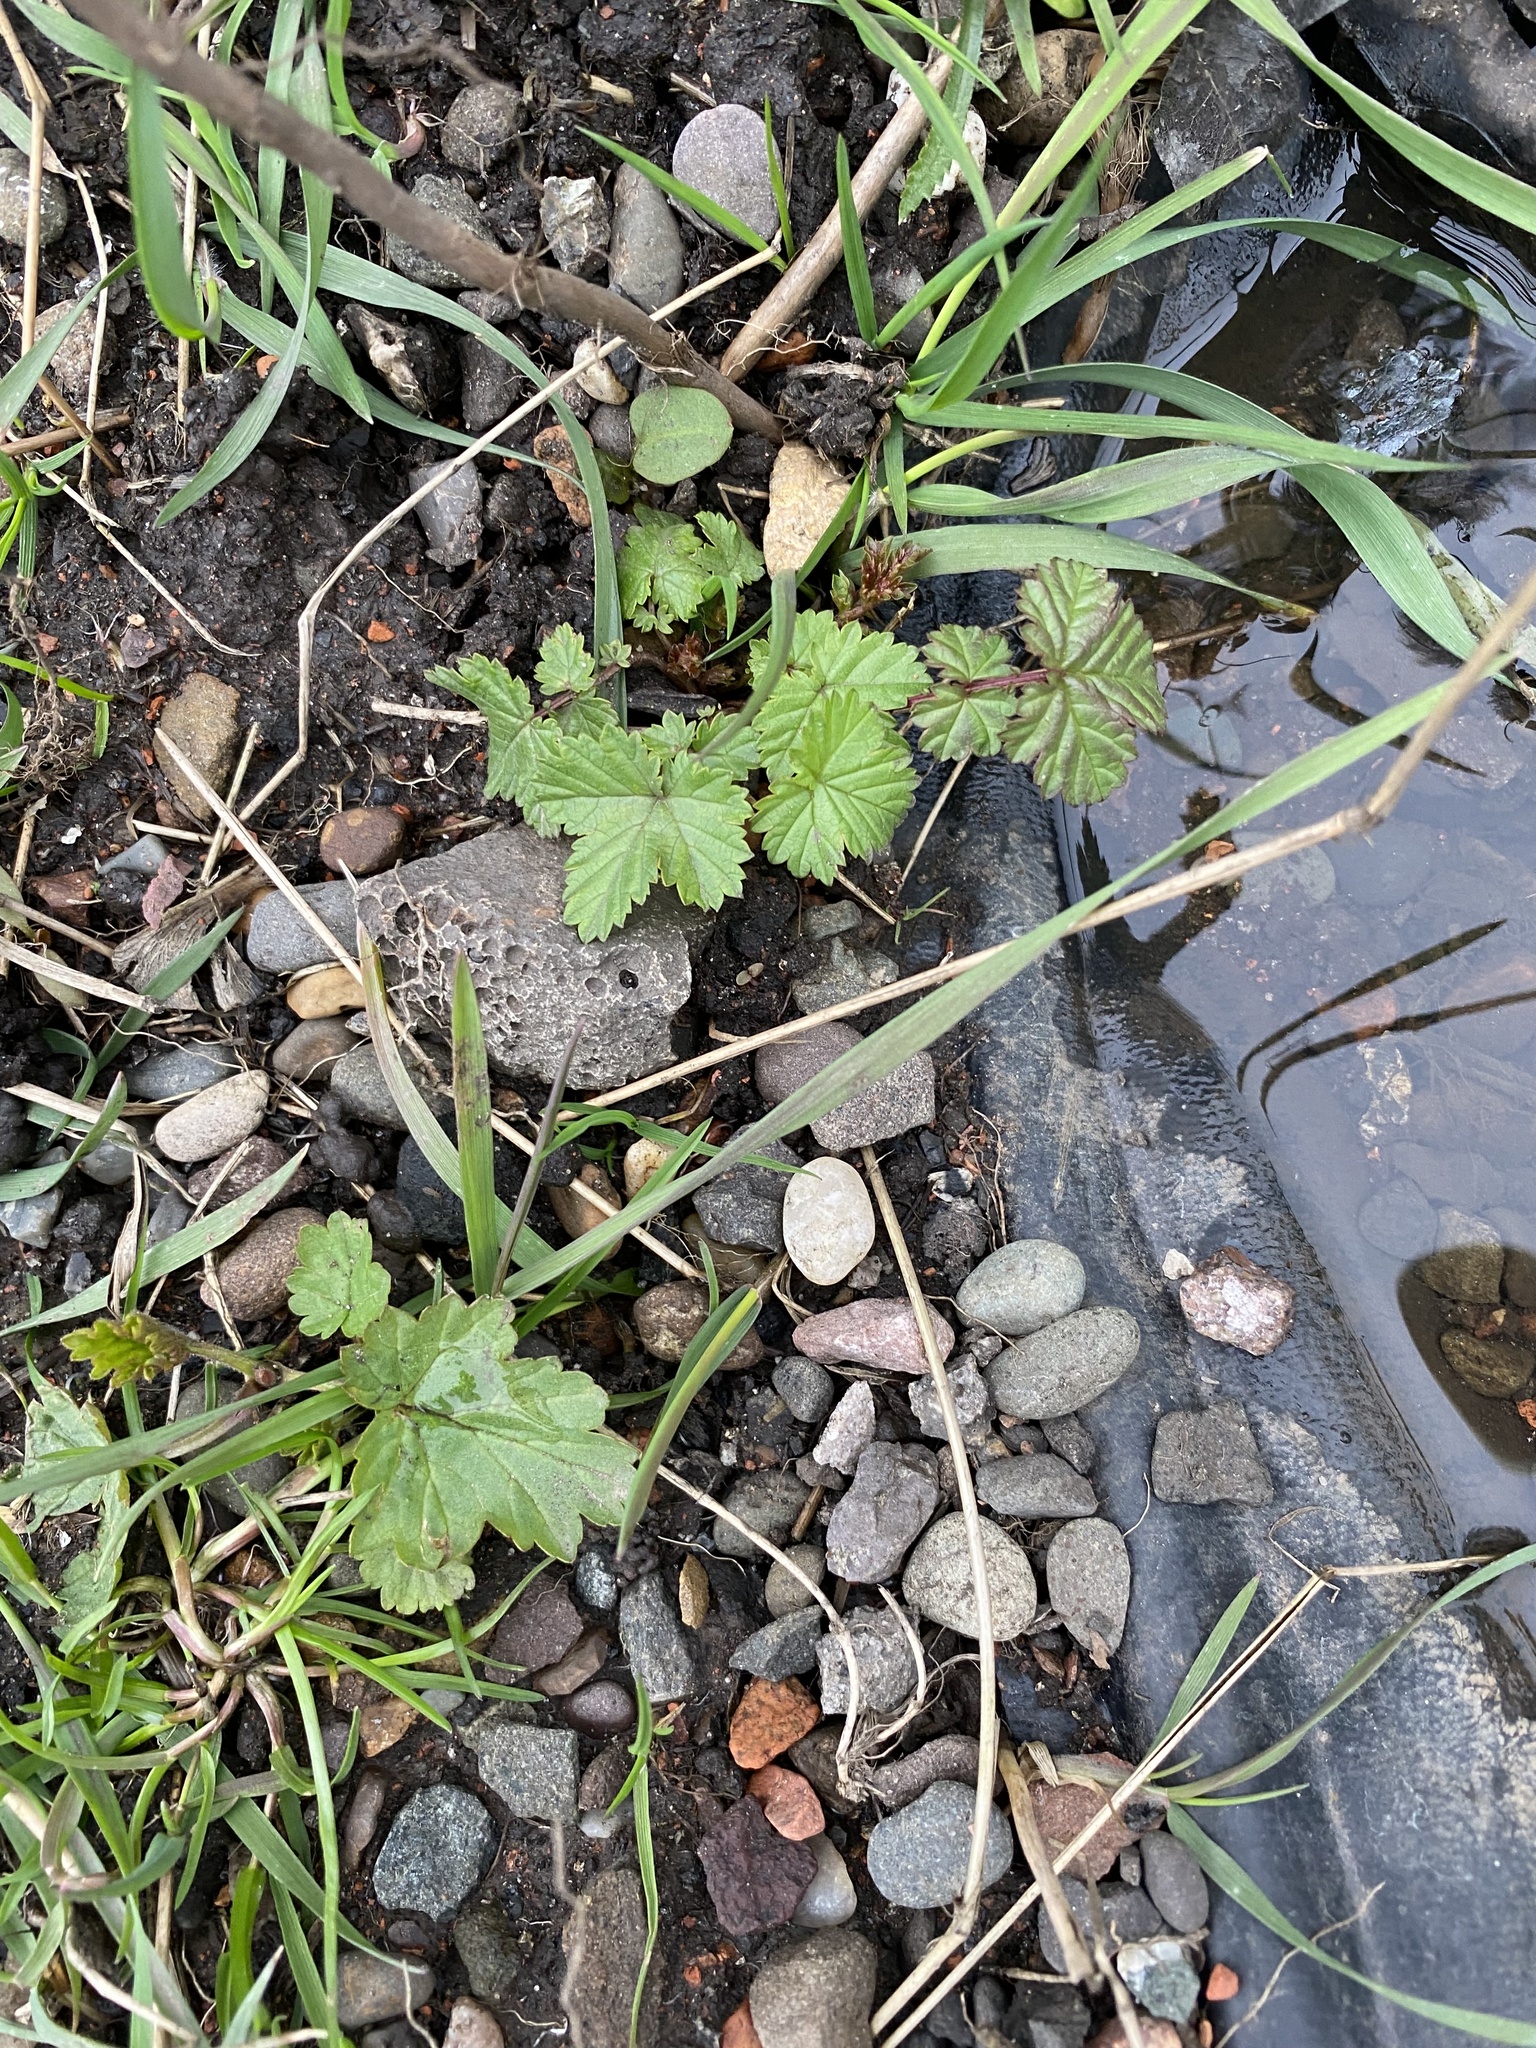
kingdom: Plantae
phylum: Tracheophyta
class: Magnoliopsida
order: Rosales
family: Rosaceae
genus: Filipendula
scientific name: Filipendula ulmaria
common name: Meadowsweet
